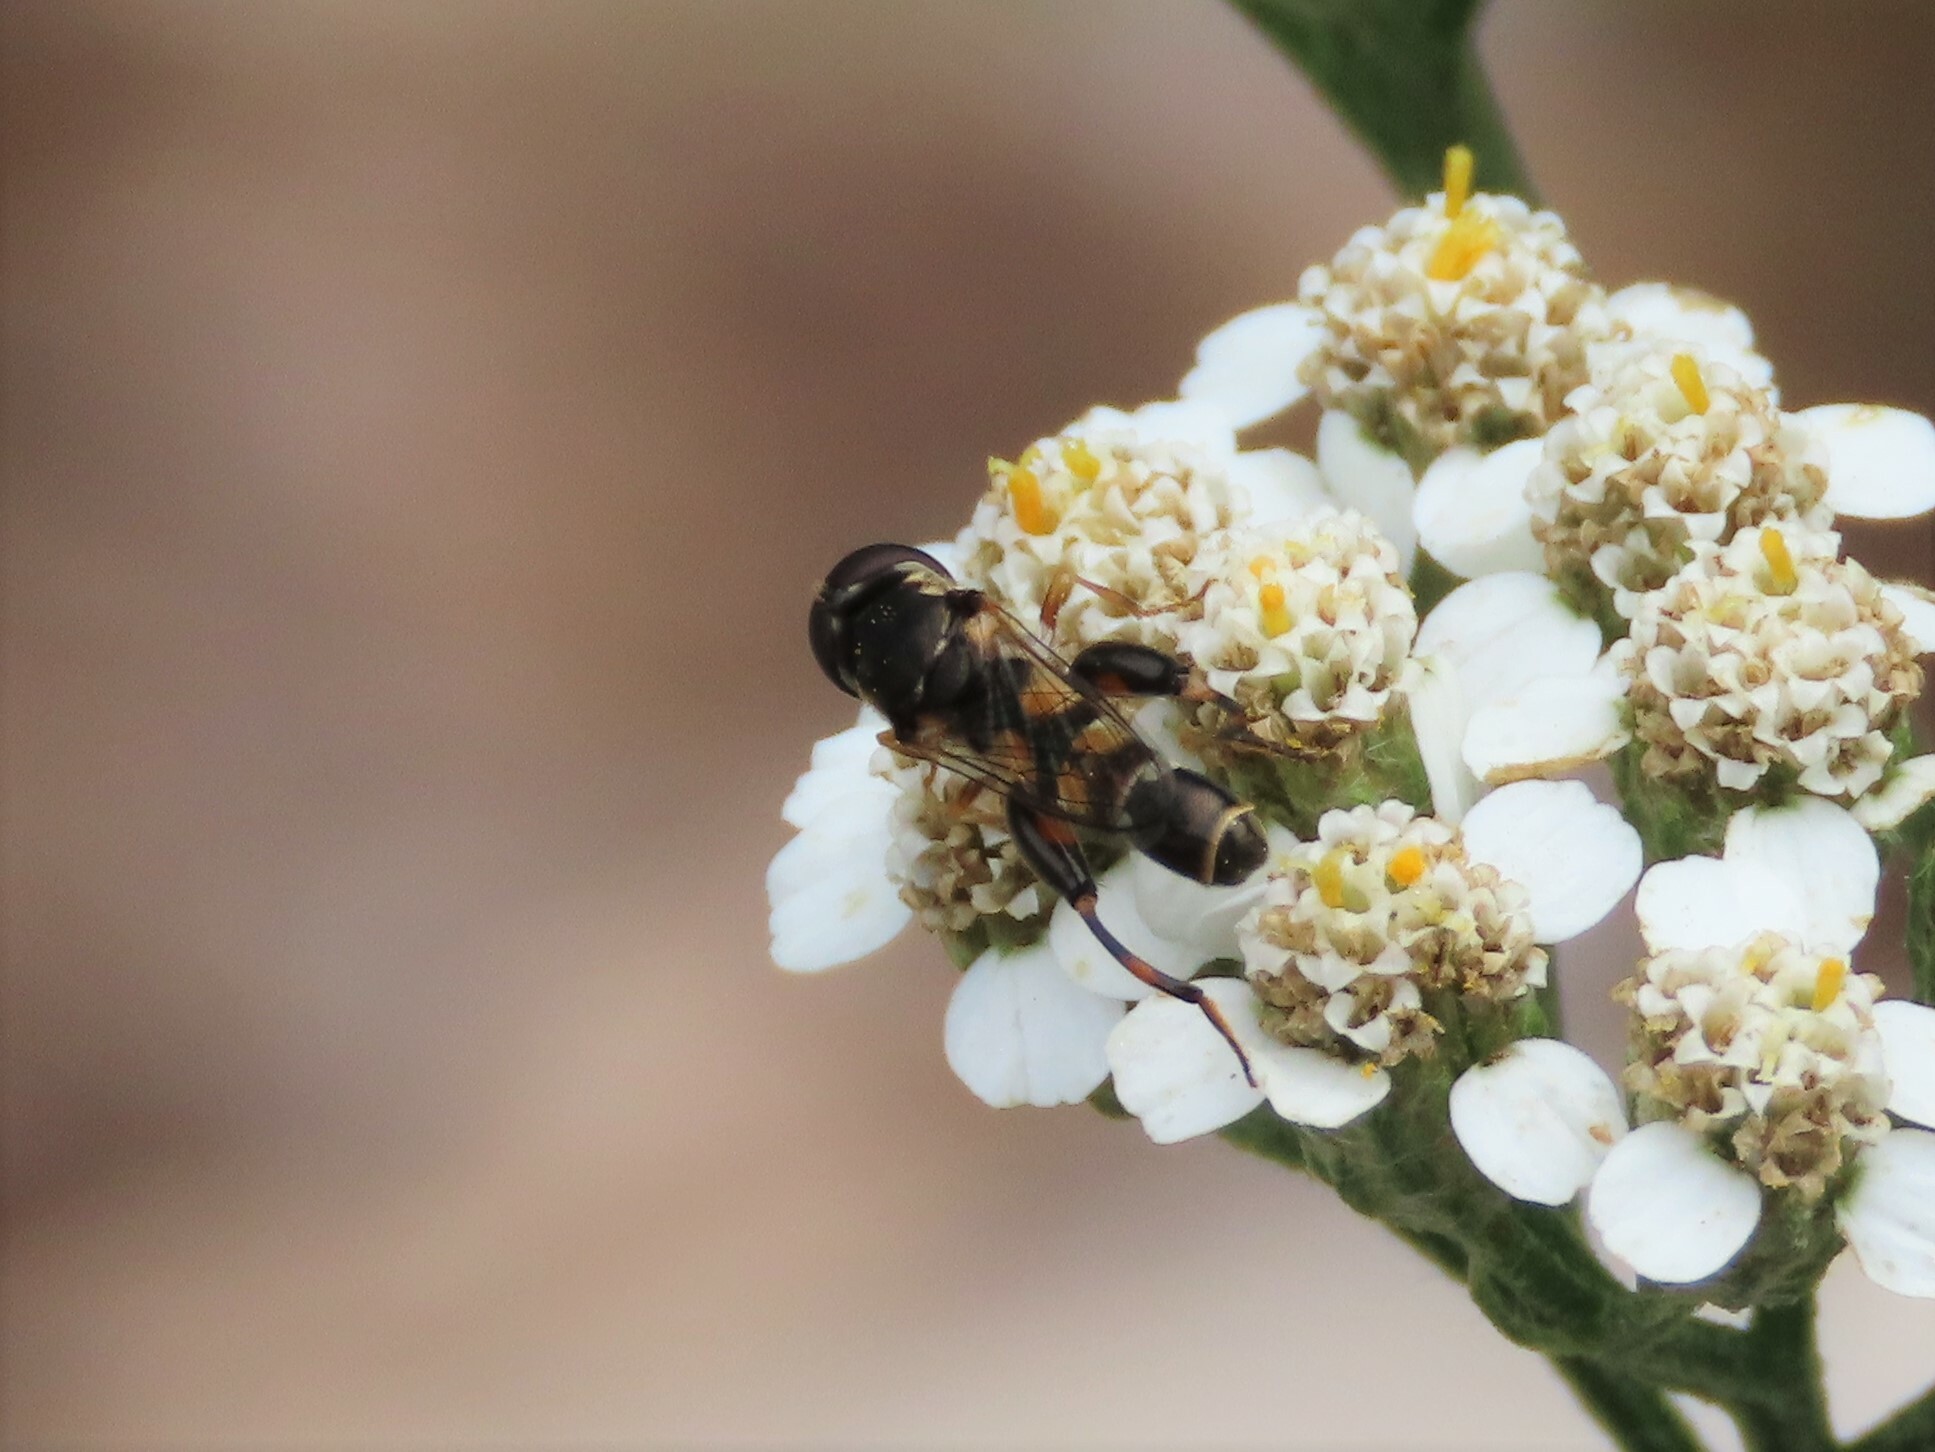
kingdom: Animalia
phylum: Arthropoda
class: Insecta
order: Diptera
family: Syrphidae
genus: Syritta
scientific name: Syritta pipiens
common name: Hover fly
